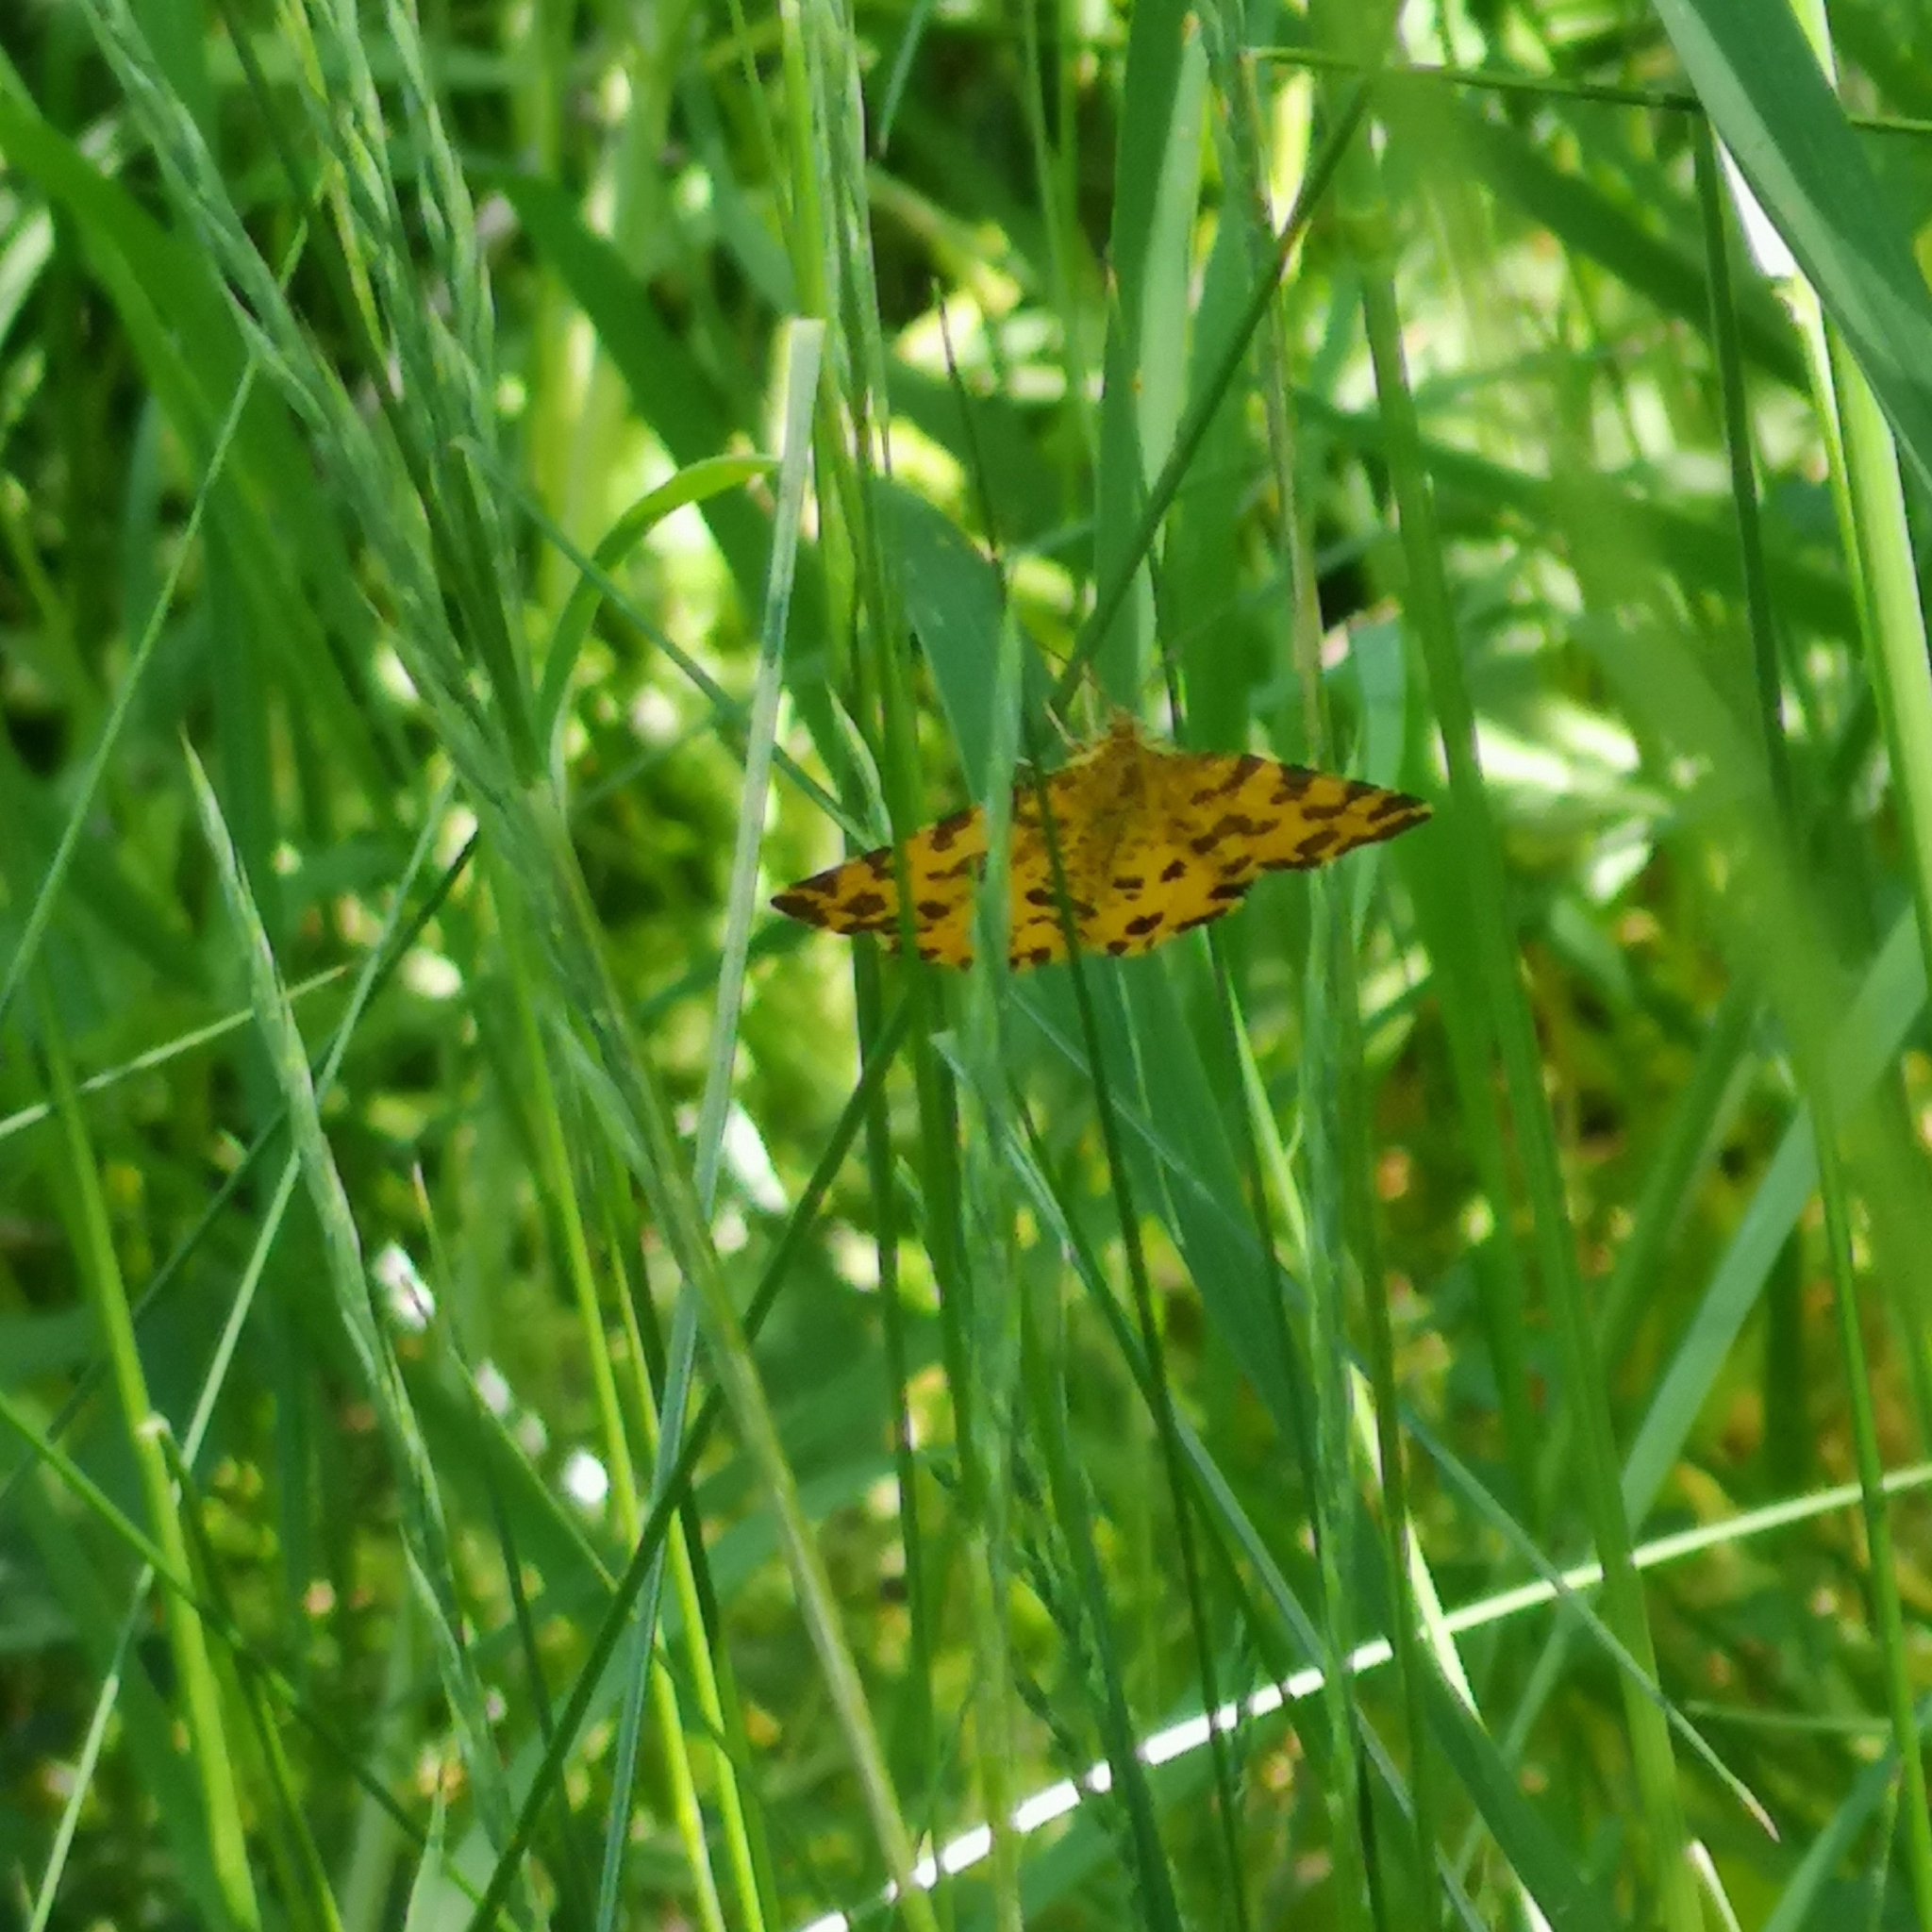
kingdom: Animalia
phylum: Arthropoda
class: Insecta
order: Lepidoptera
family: Geometridae
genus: Pseudopanthera
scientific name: Pseudopanthera macularia
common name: Speckled yellow
